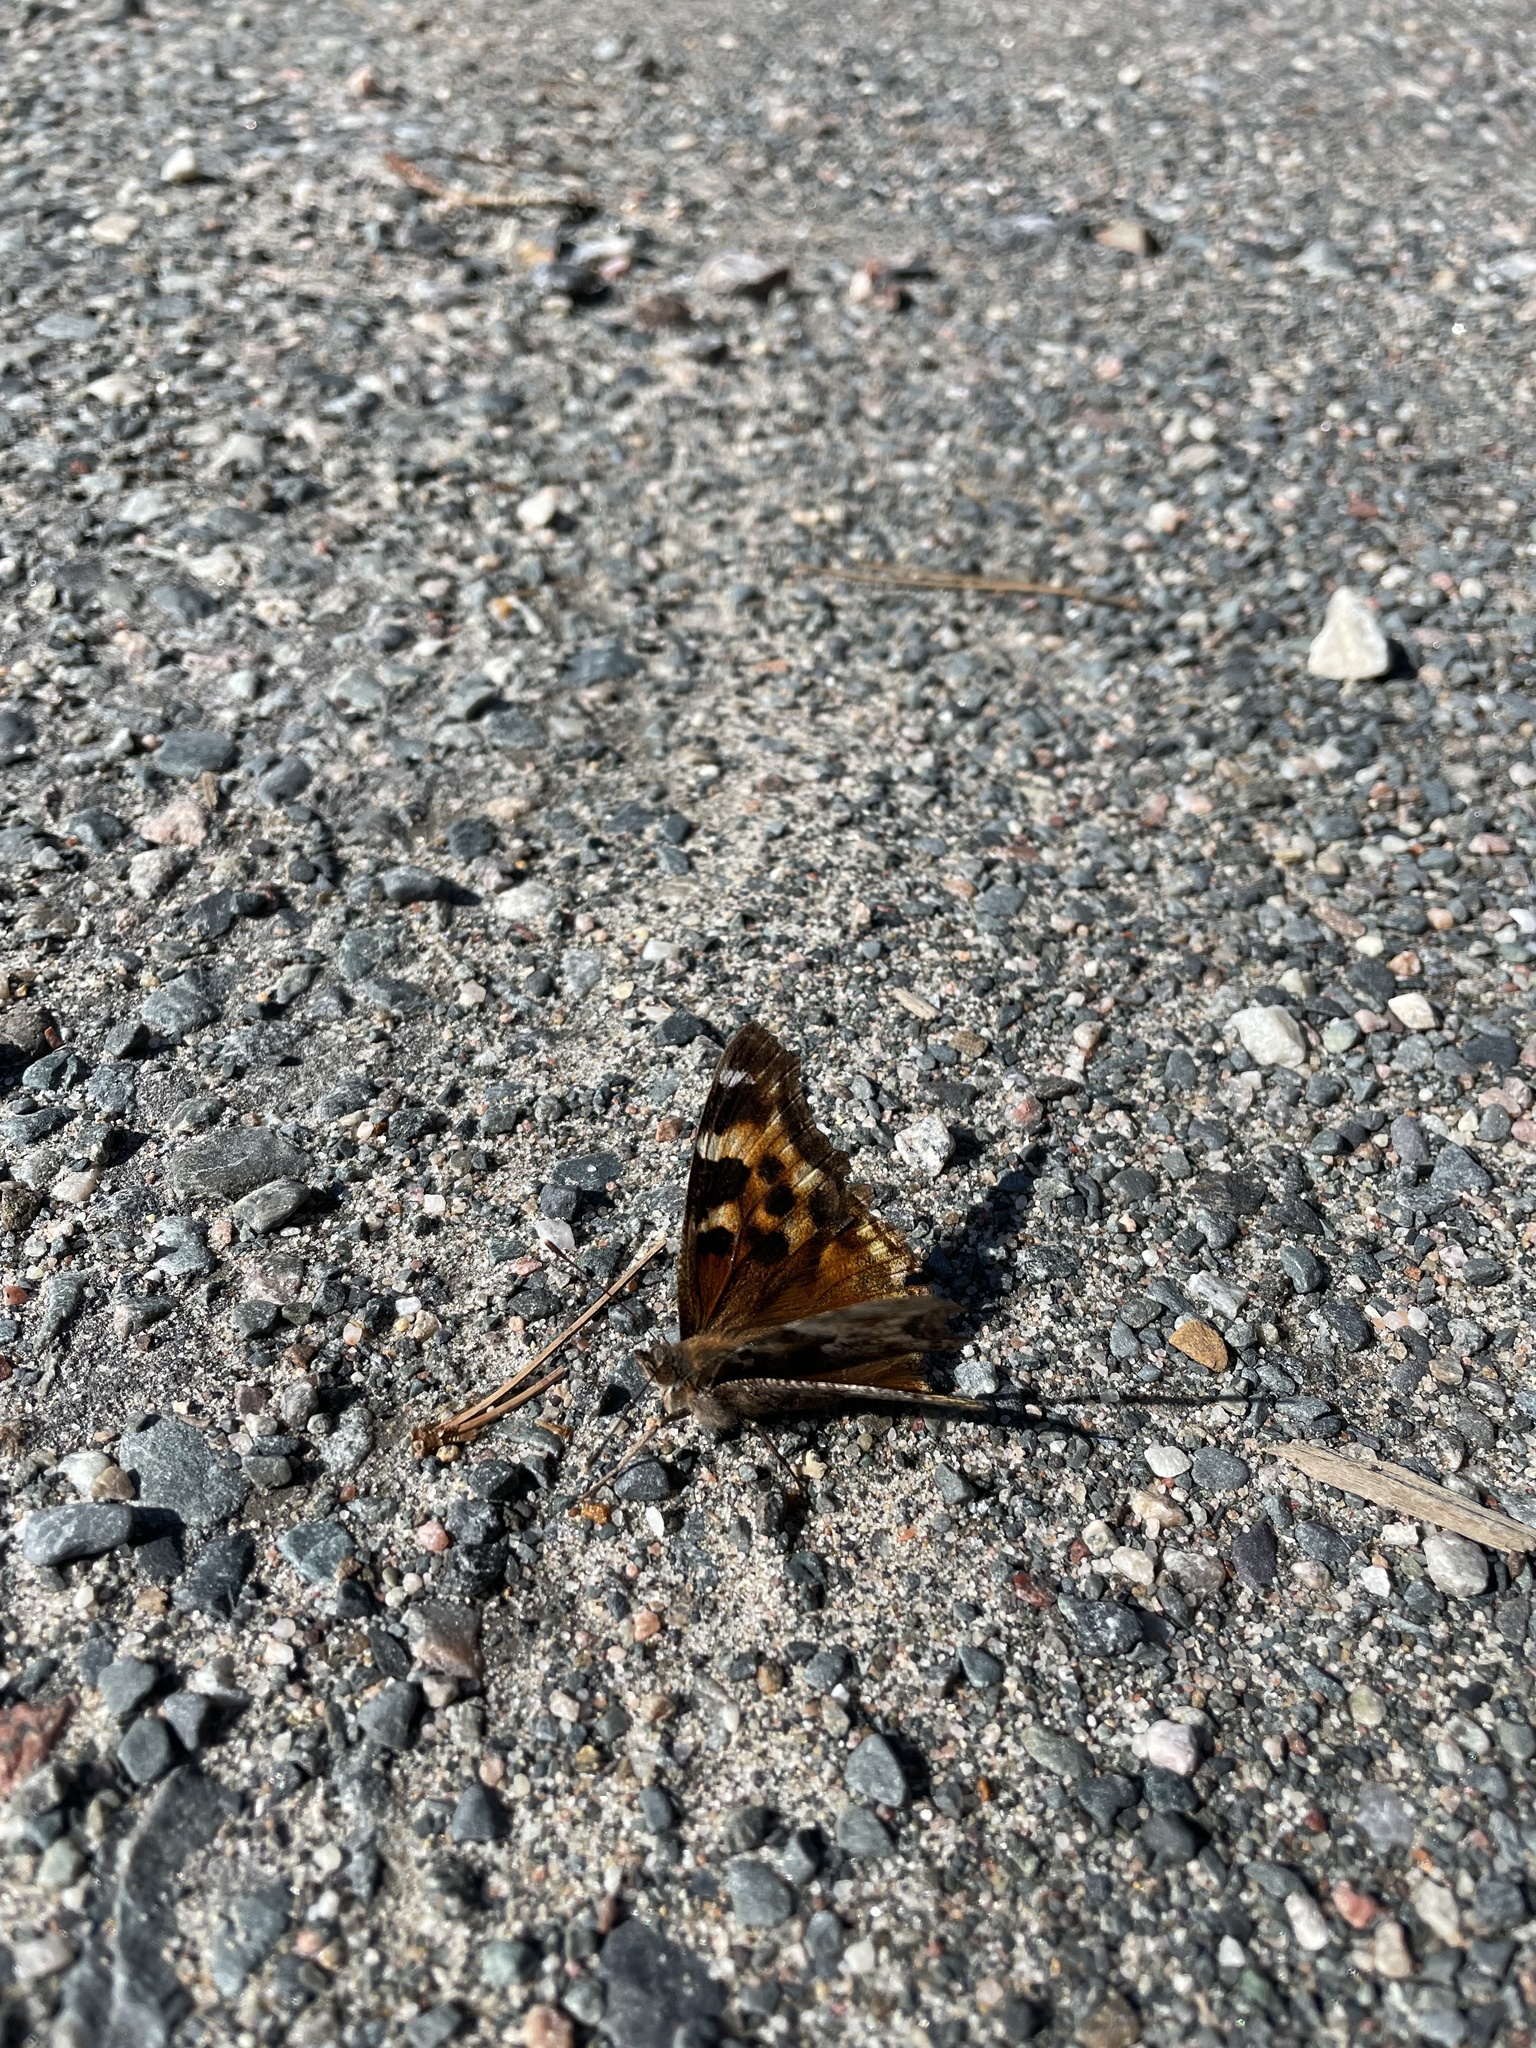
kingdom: Animalia
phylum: Arthropoda
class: Insecta
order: Lepidoptera
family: Nymphalidae
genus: Polygonia
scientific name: Polygonia vaualbum
